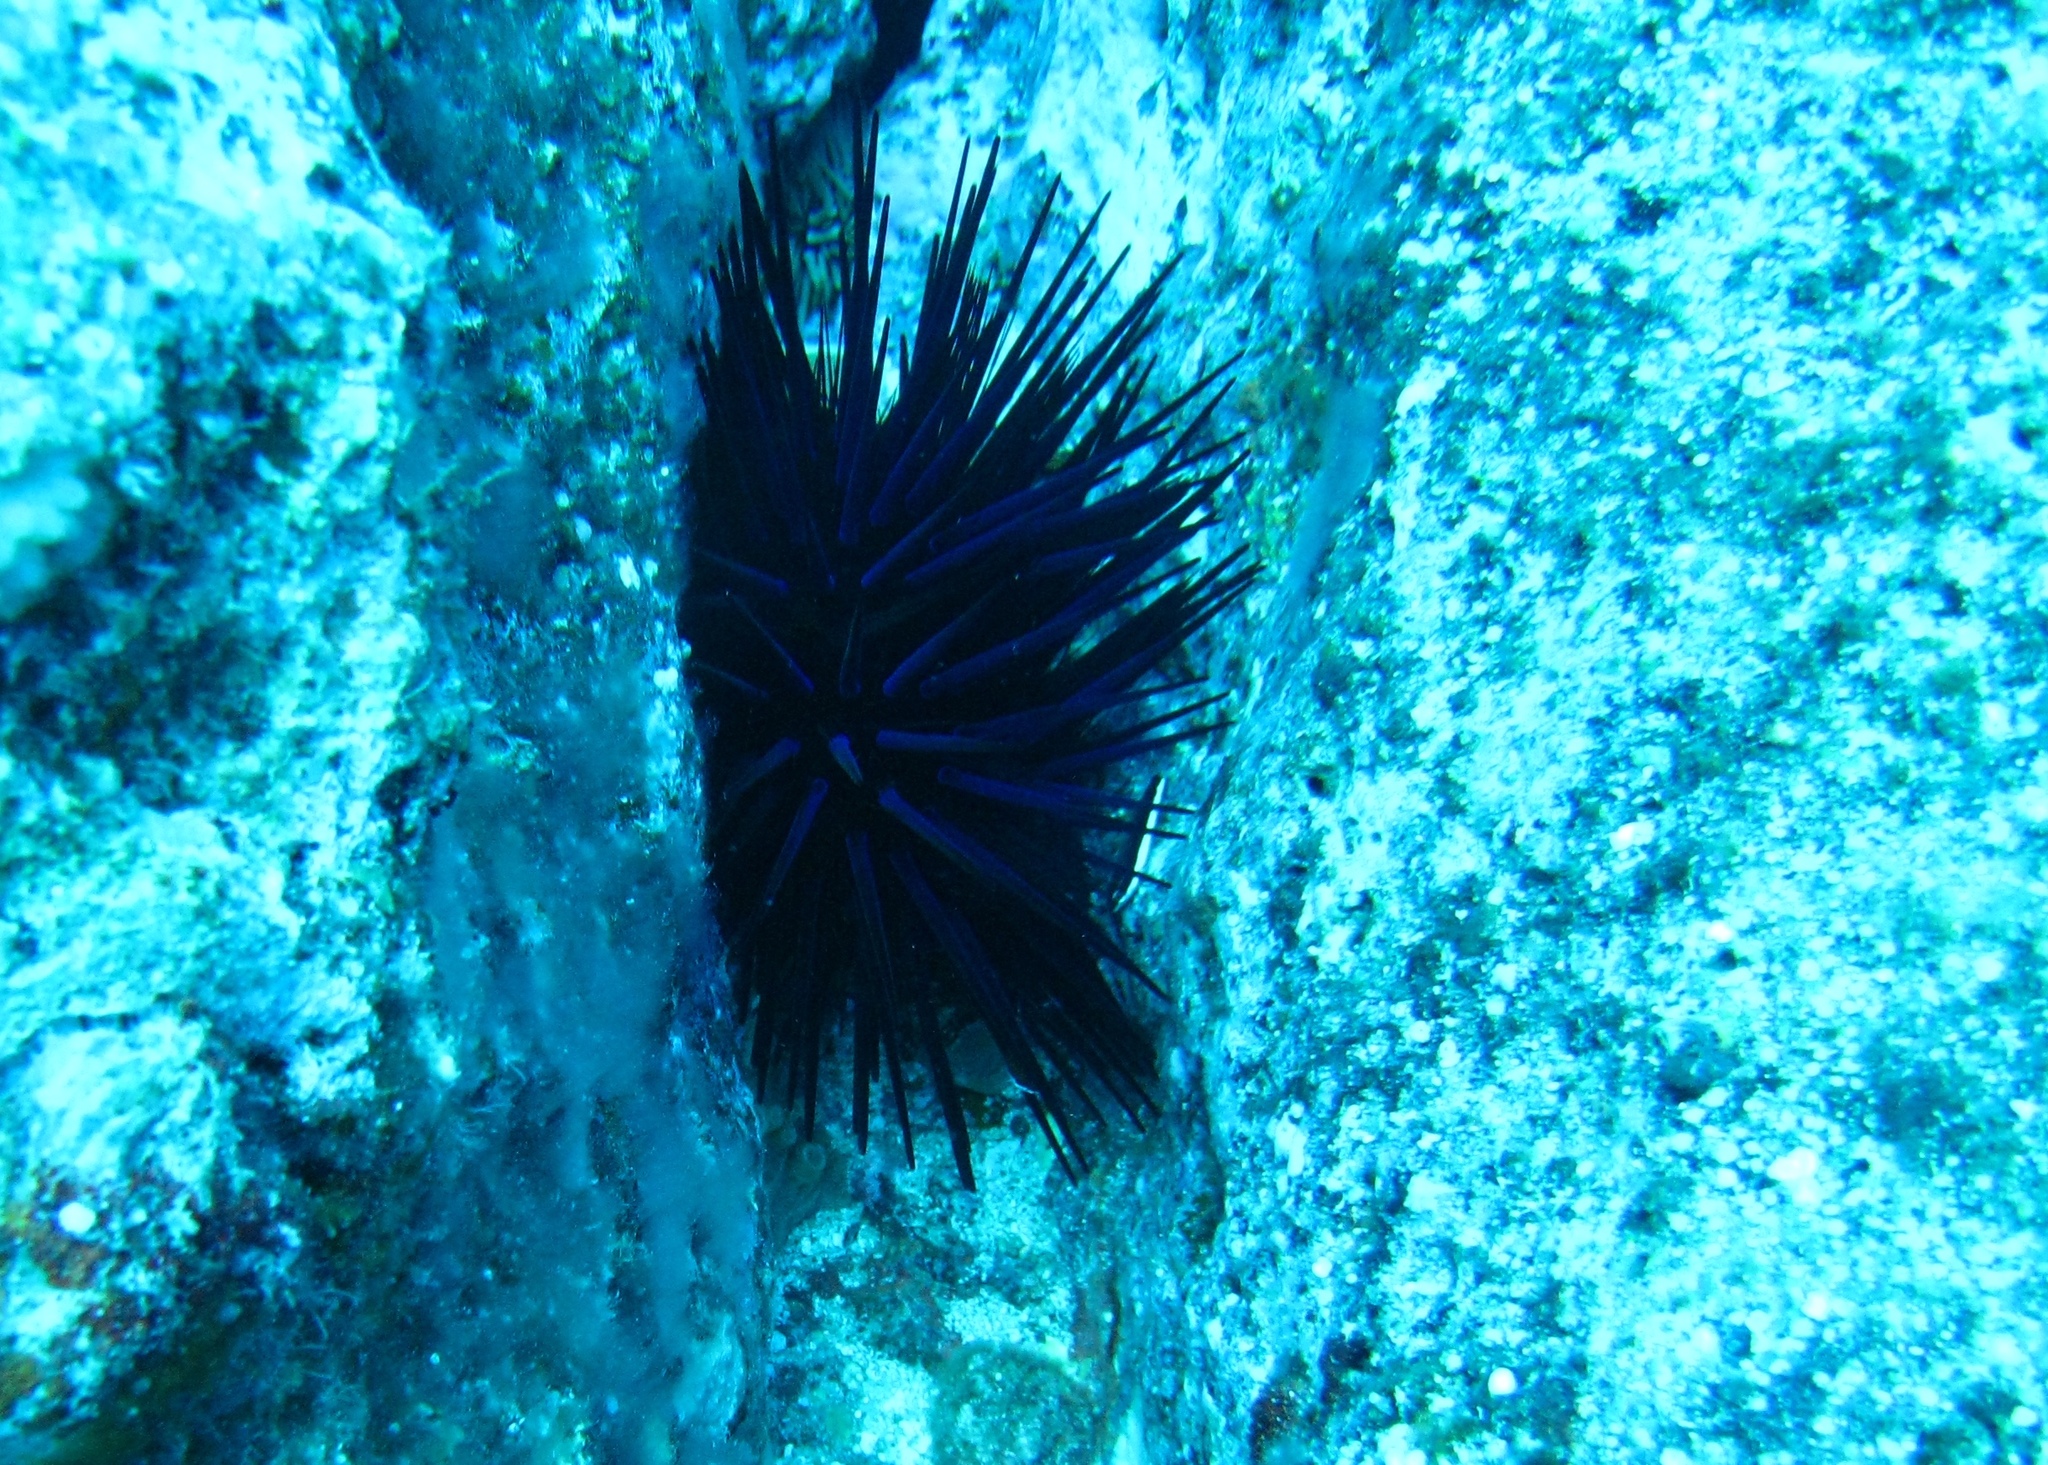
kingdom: Animalia
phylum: Echinodermata
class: Echinoidea
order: Diadematoida
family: Diadematidae
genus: Echinothrix
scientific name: Echinothrix diadema
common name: Schwarzer diademseeigel
